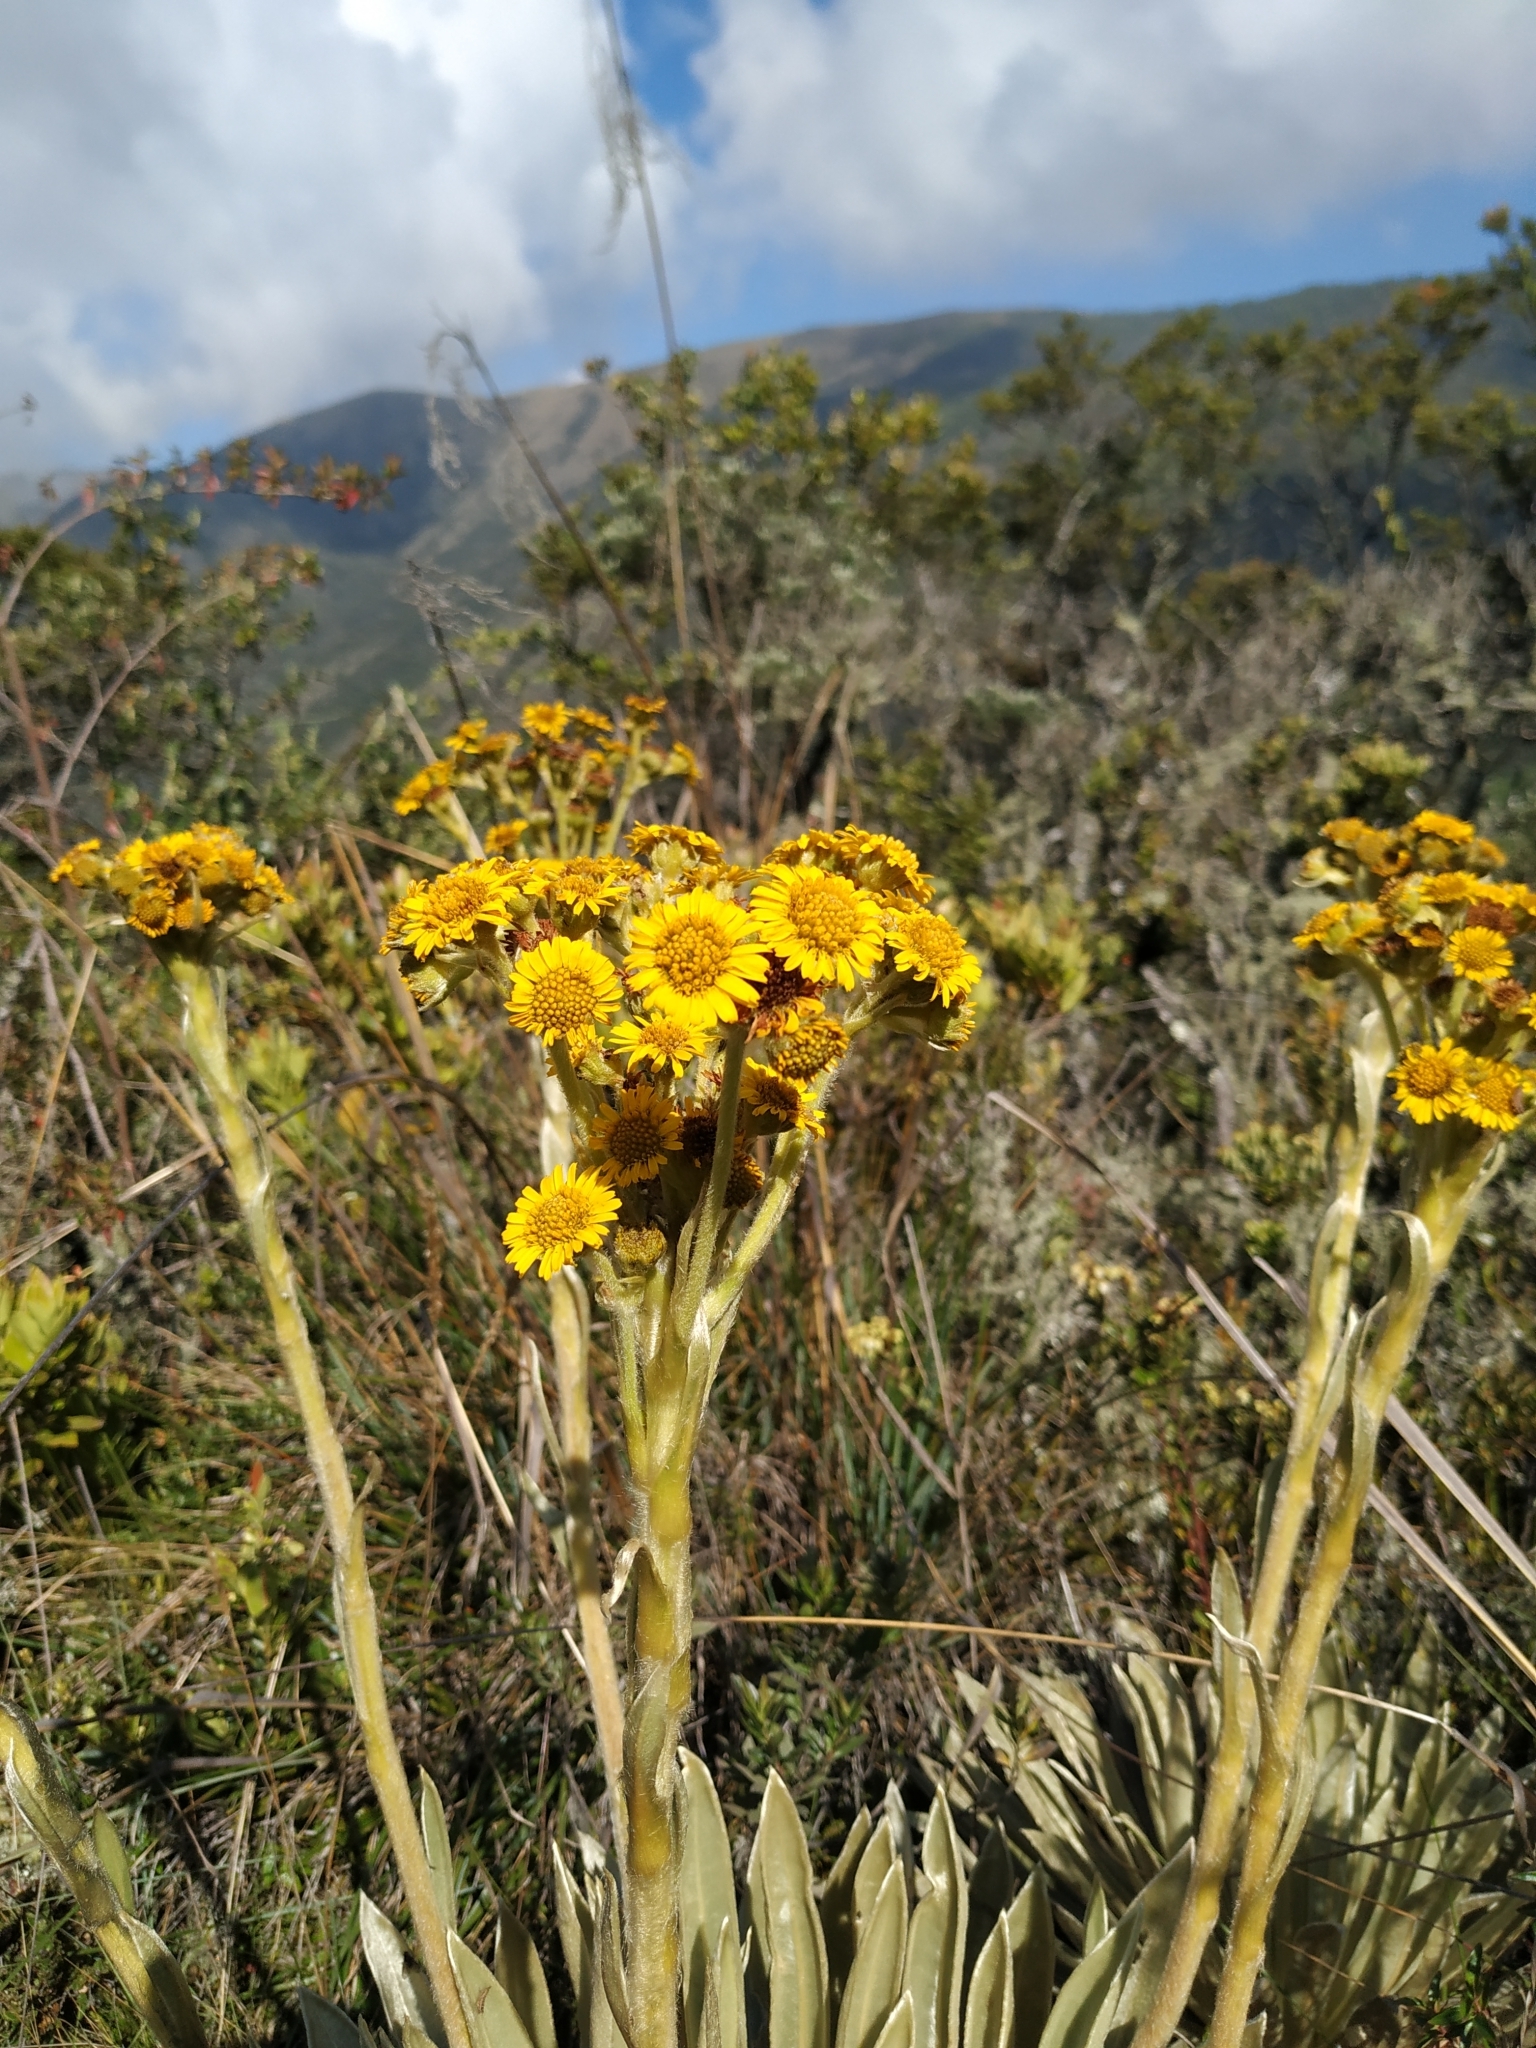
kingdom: Plantae
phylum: Tracheophyta
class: Magnoliopsida
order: Asterales
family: Asteraceae
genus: Espeletia
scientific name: Espeletia muiska
